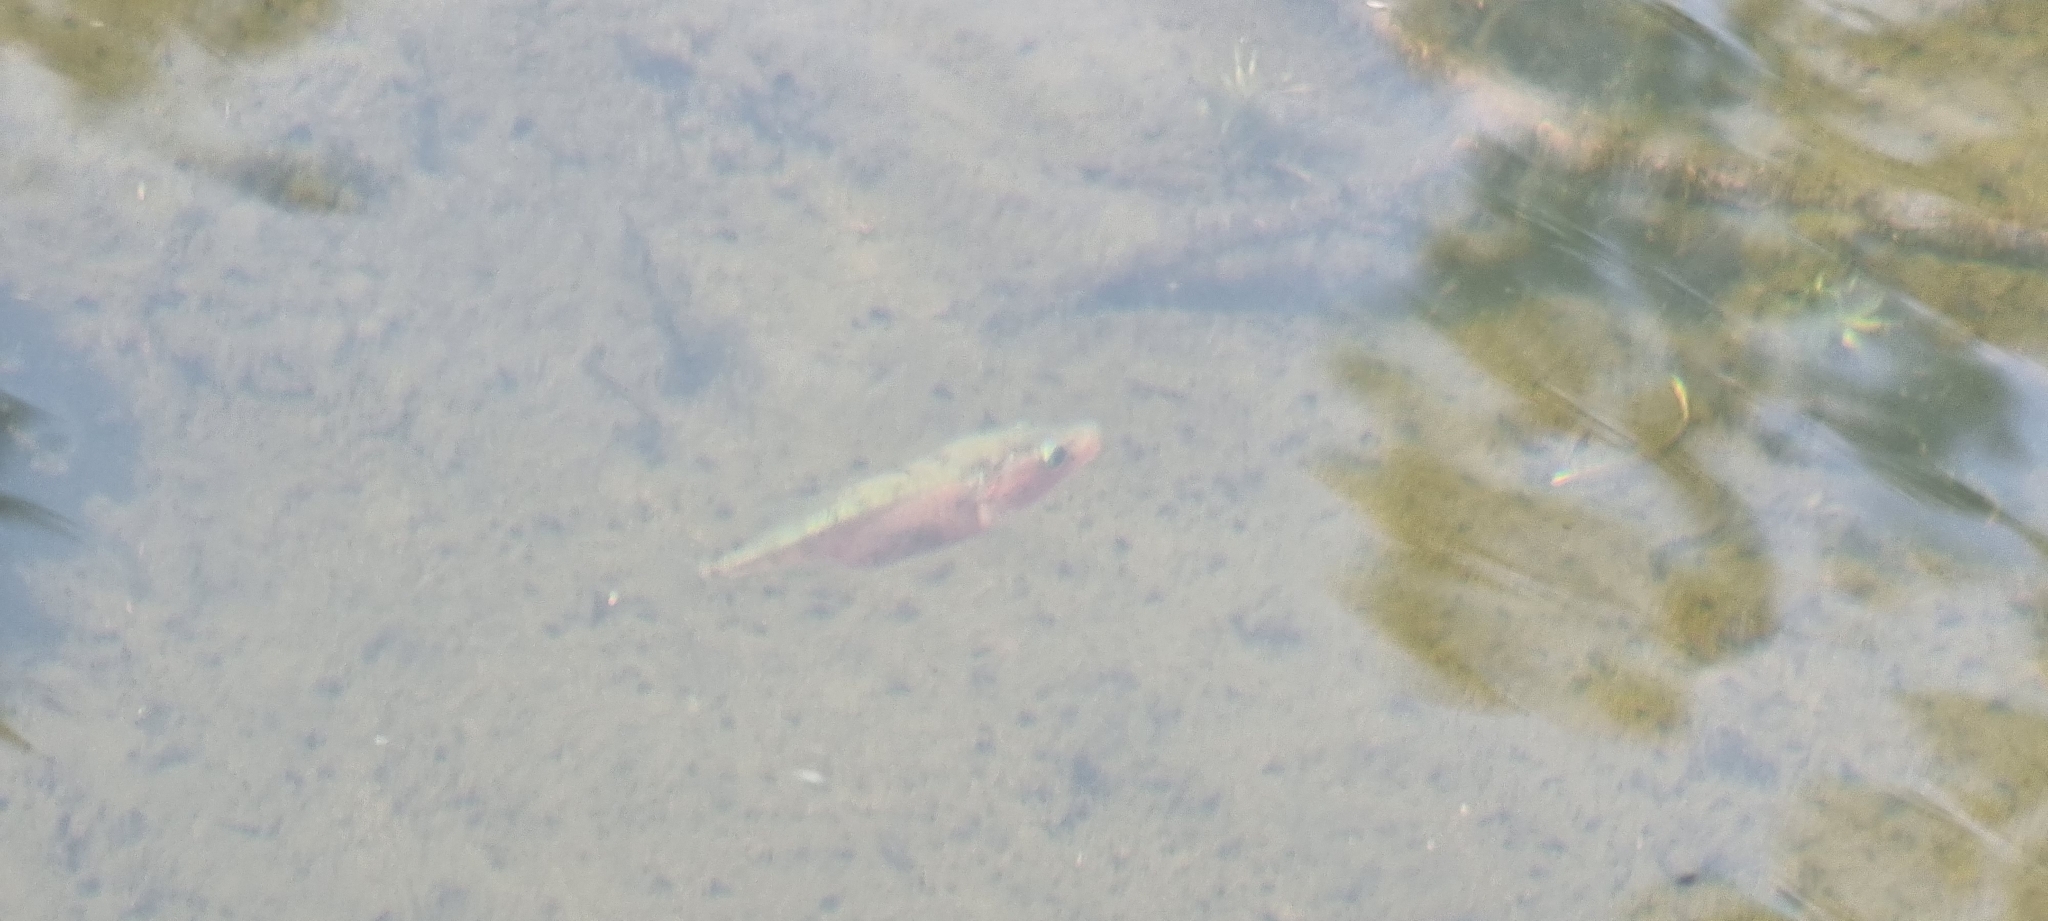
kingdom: Animalia
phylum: Chordata
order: Gasterosteiformes
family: Gasterosteidae
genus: Gasterosteus
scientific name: Gasterosteus aculeatus
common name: Three-spined stickleback
